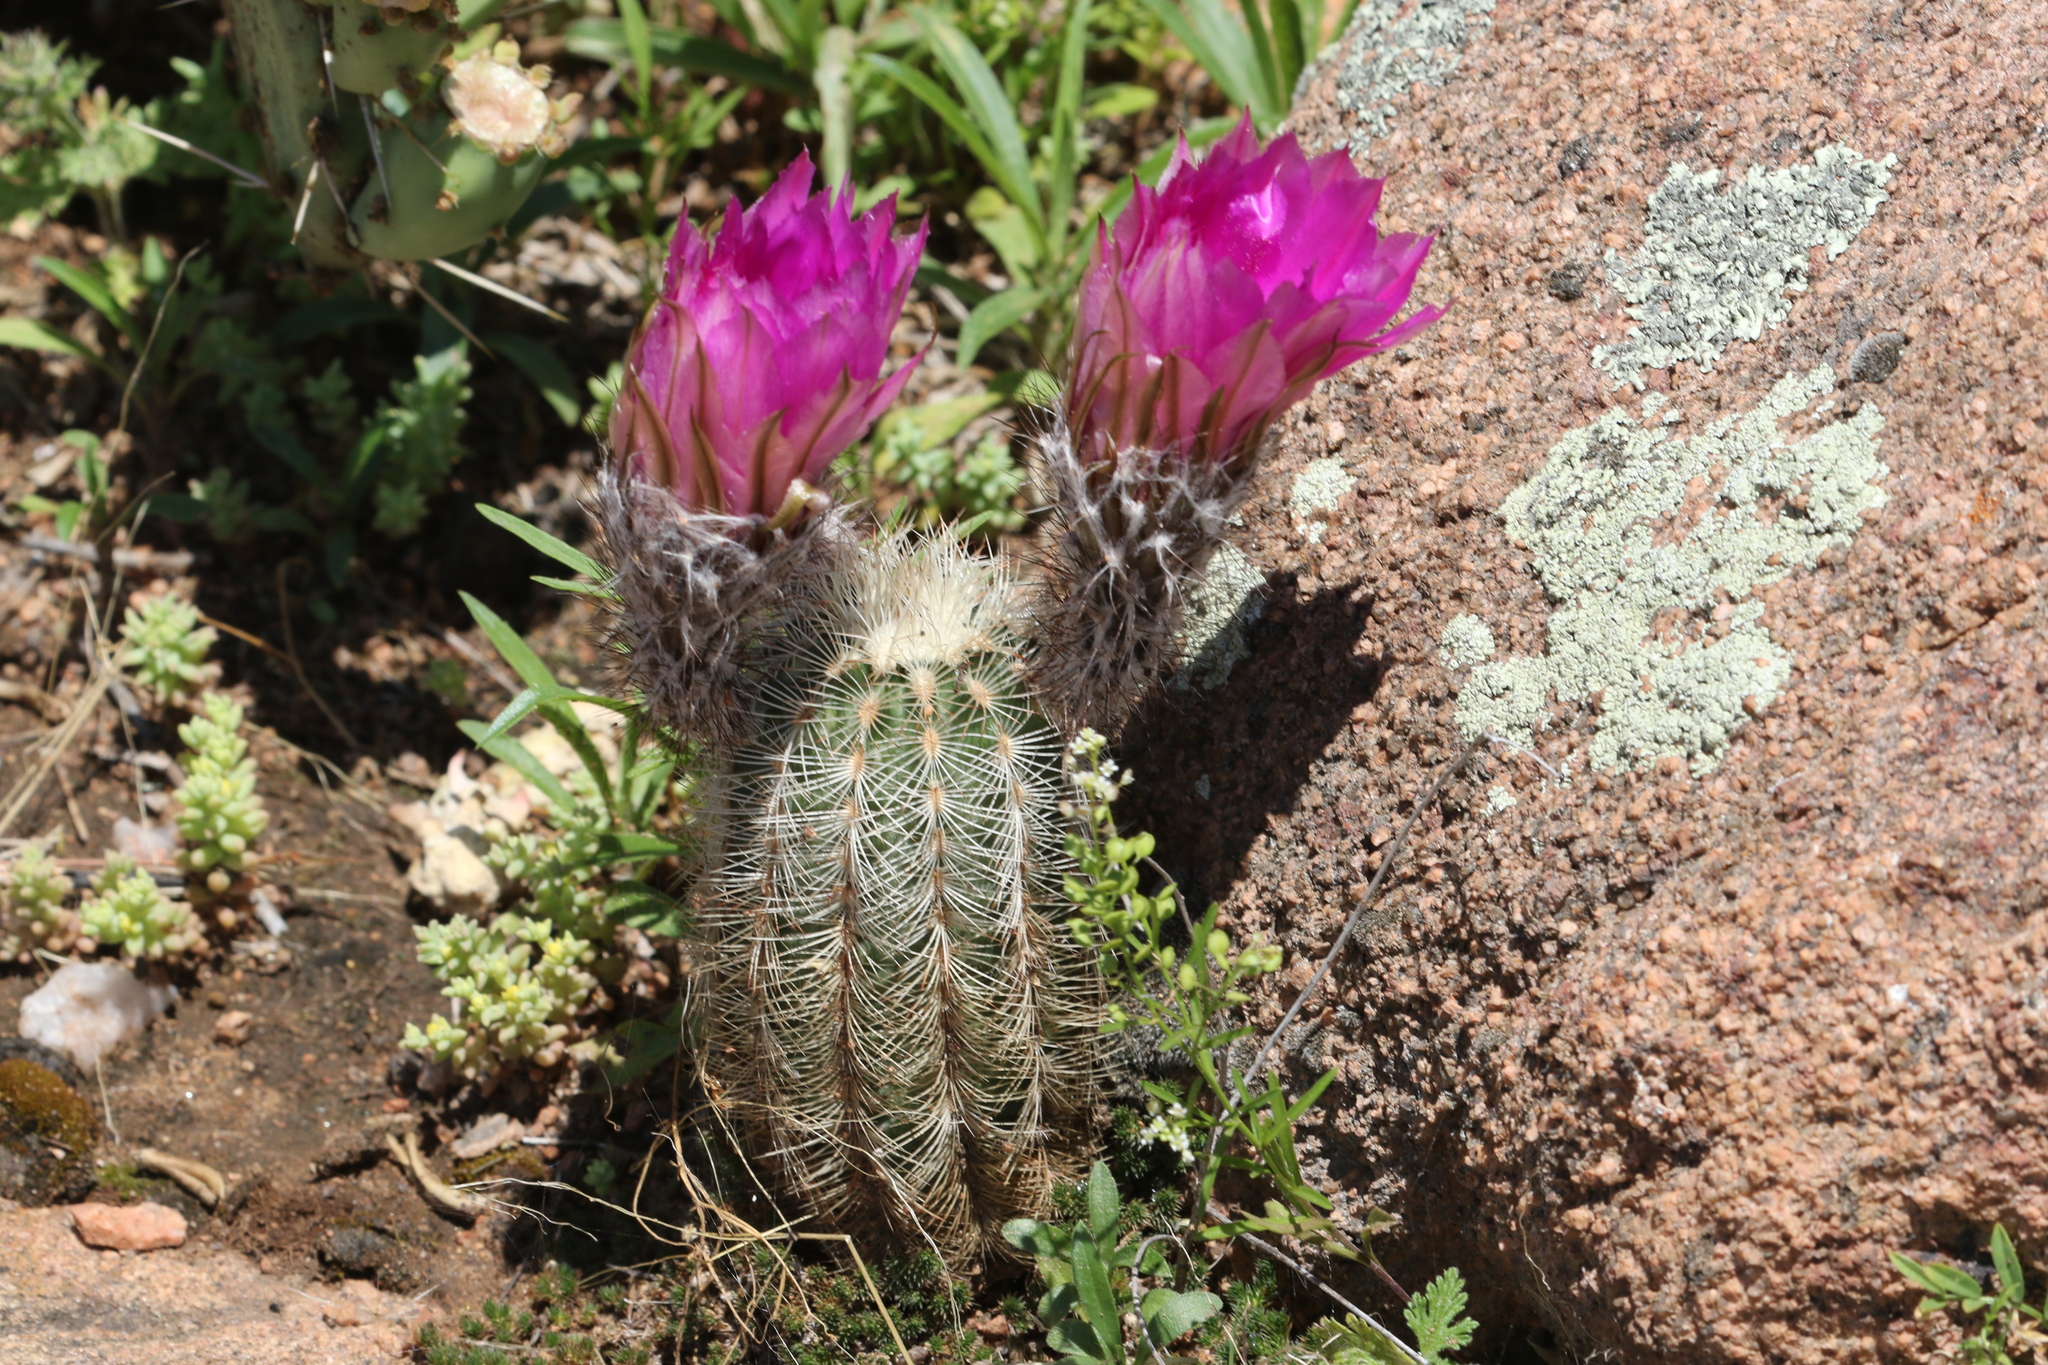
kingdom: Plantae
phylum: Tracheophyta
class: Magnoliopsida
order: Caryophyllales
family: Cactaceae
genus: Echinocereus
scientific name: Echinocereus reichenbachii
